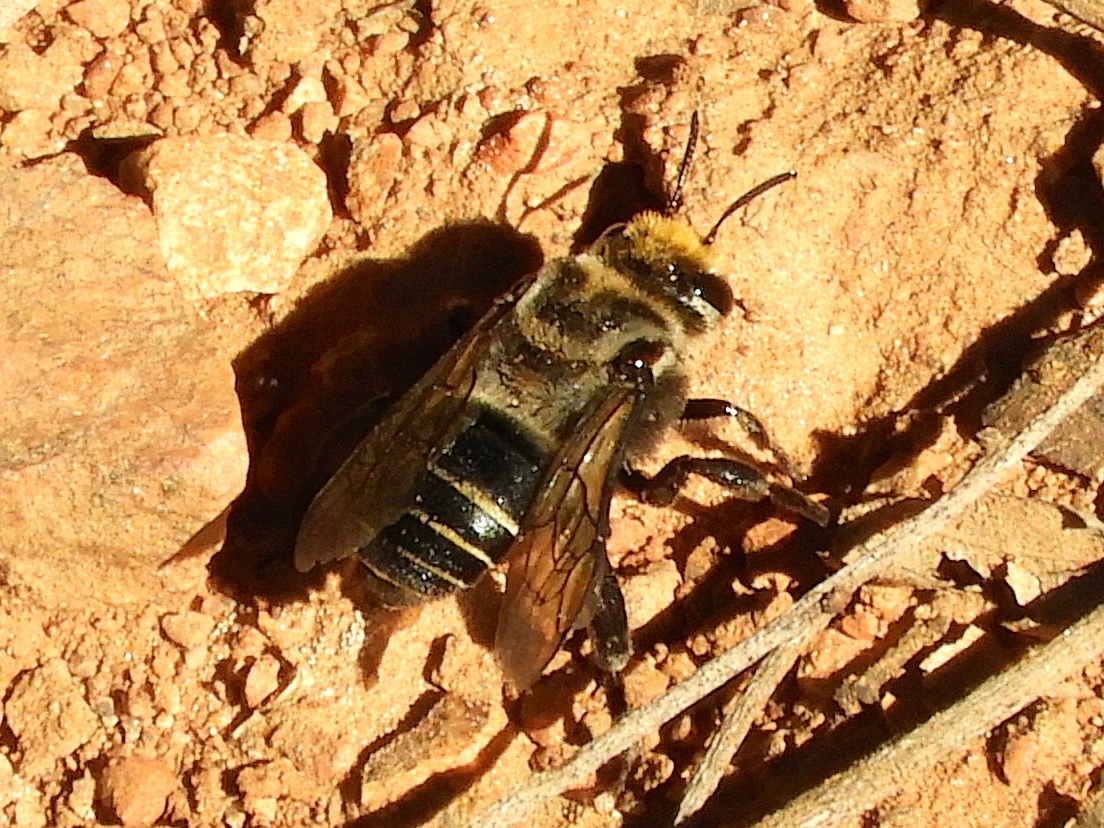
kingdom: Animalia
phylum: Arthropoda
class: Insecta
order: Hymenoptera
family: Apidae
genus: Melitoma
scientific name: Melitoma
